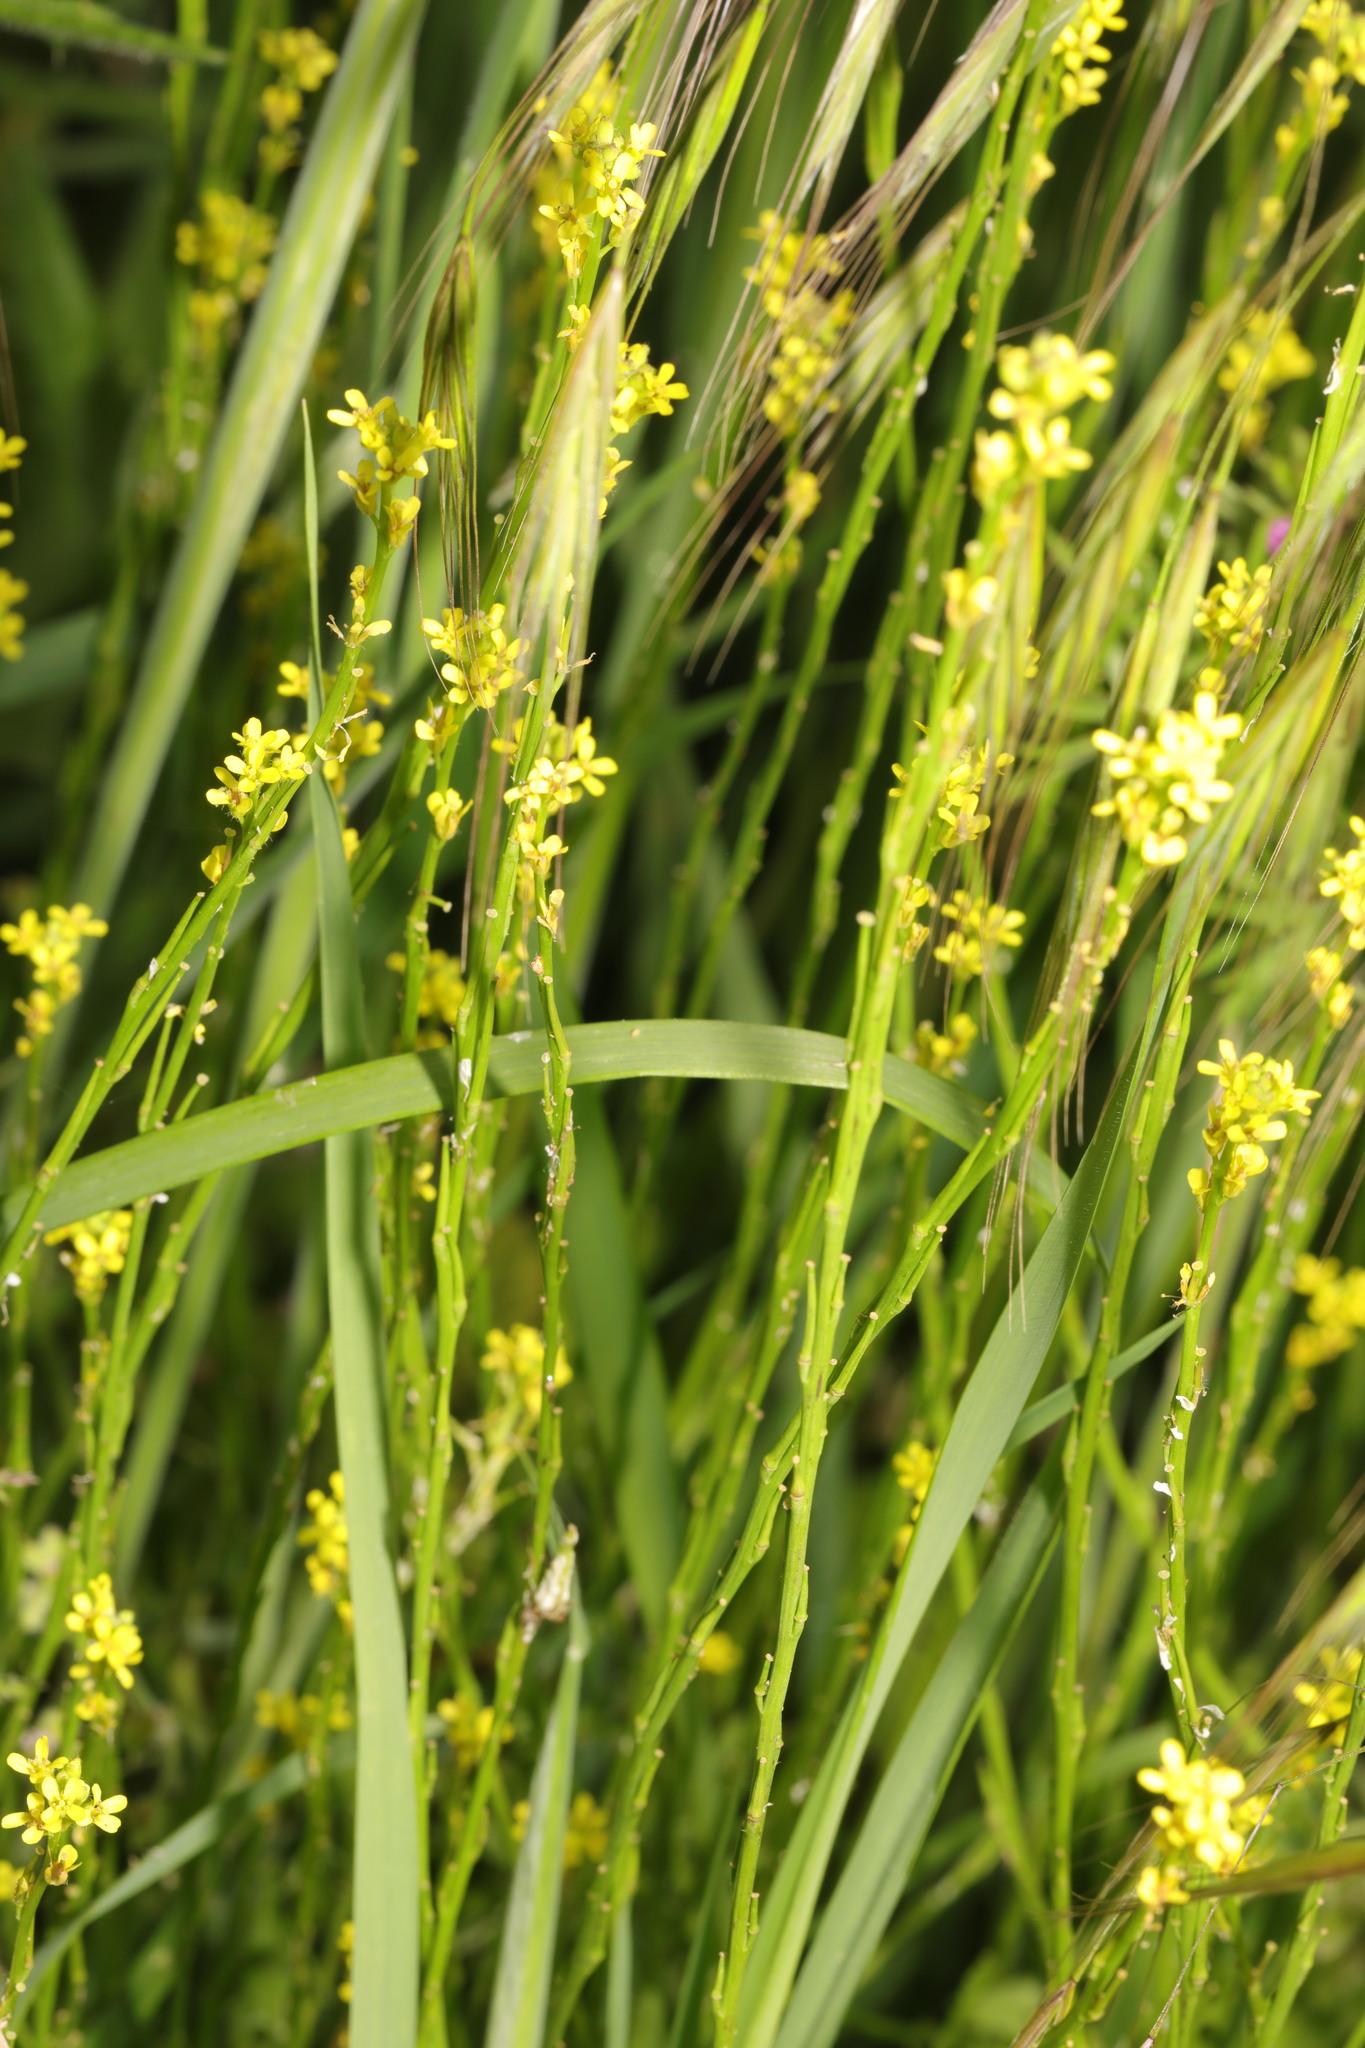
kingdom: Plantae
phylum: Tracheophyta
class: Magnoliopsida
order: Brassicales
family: Brassicaceae
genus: Sisymbrium
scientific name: Sisymbrium officinale
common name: Hedge mustard
